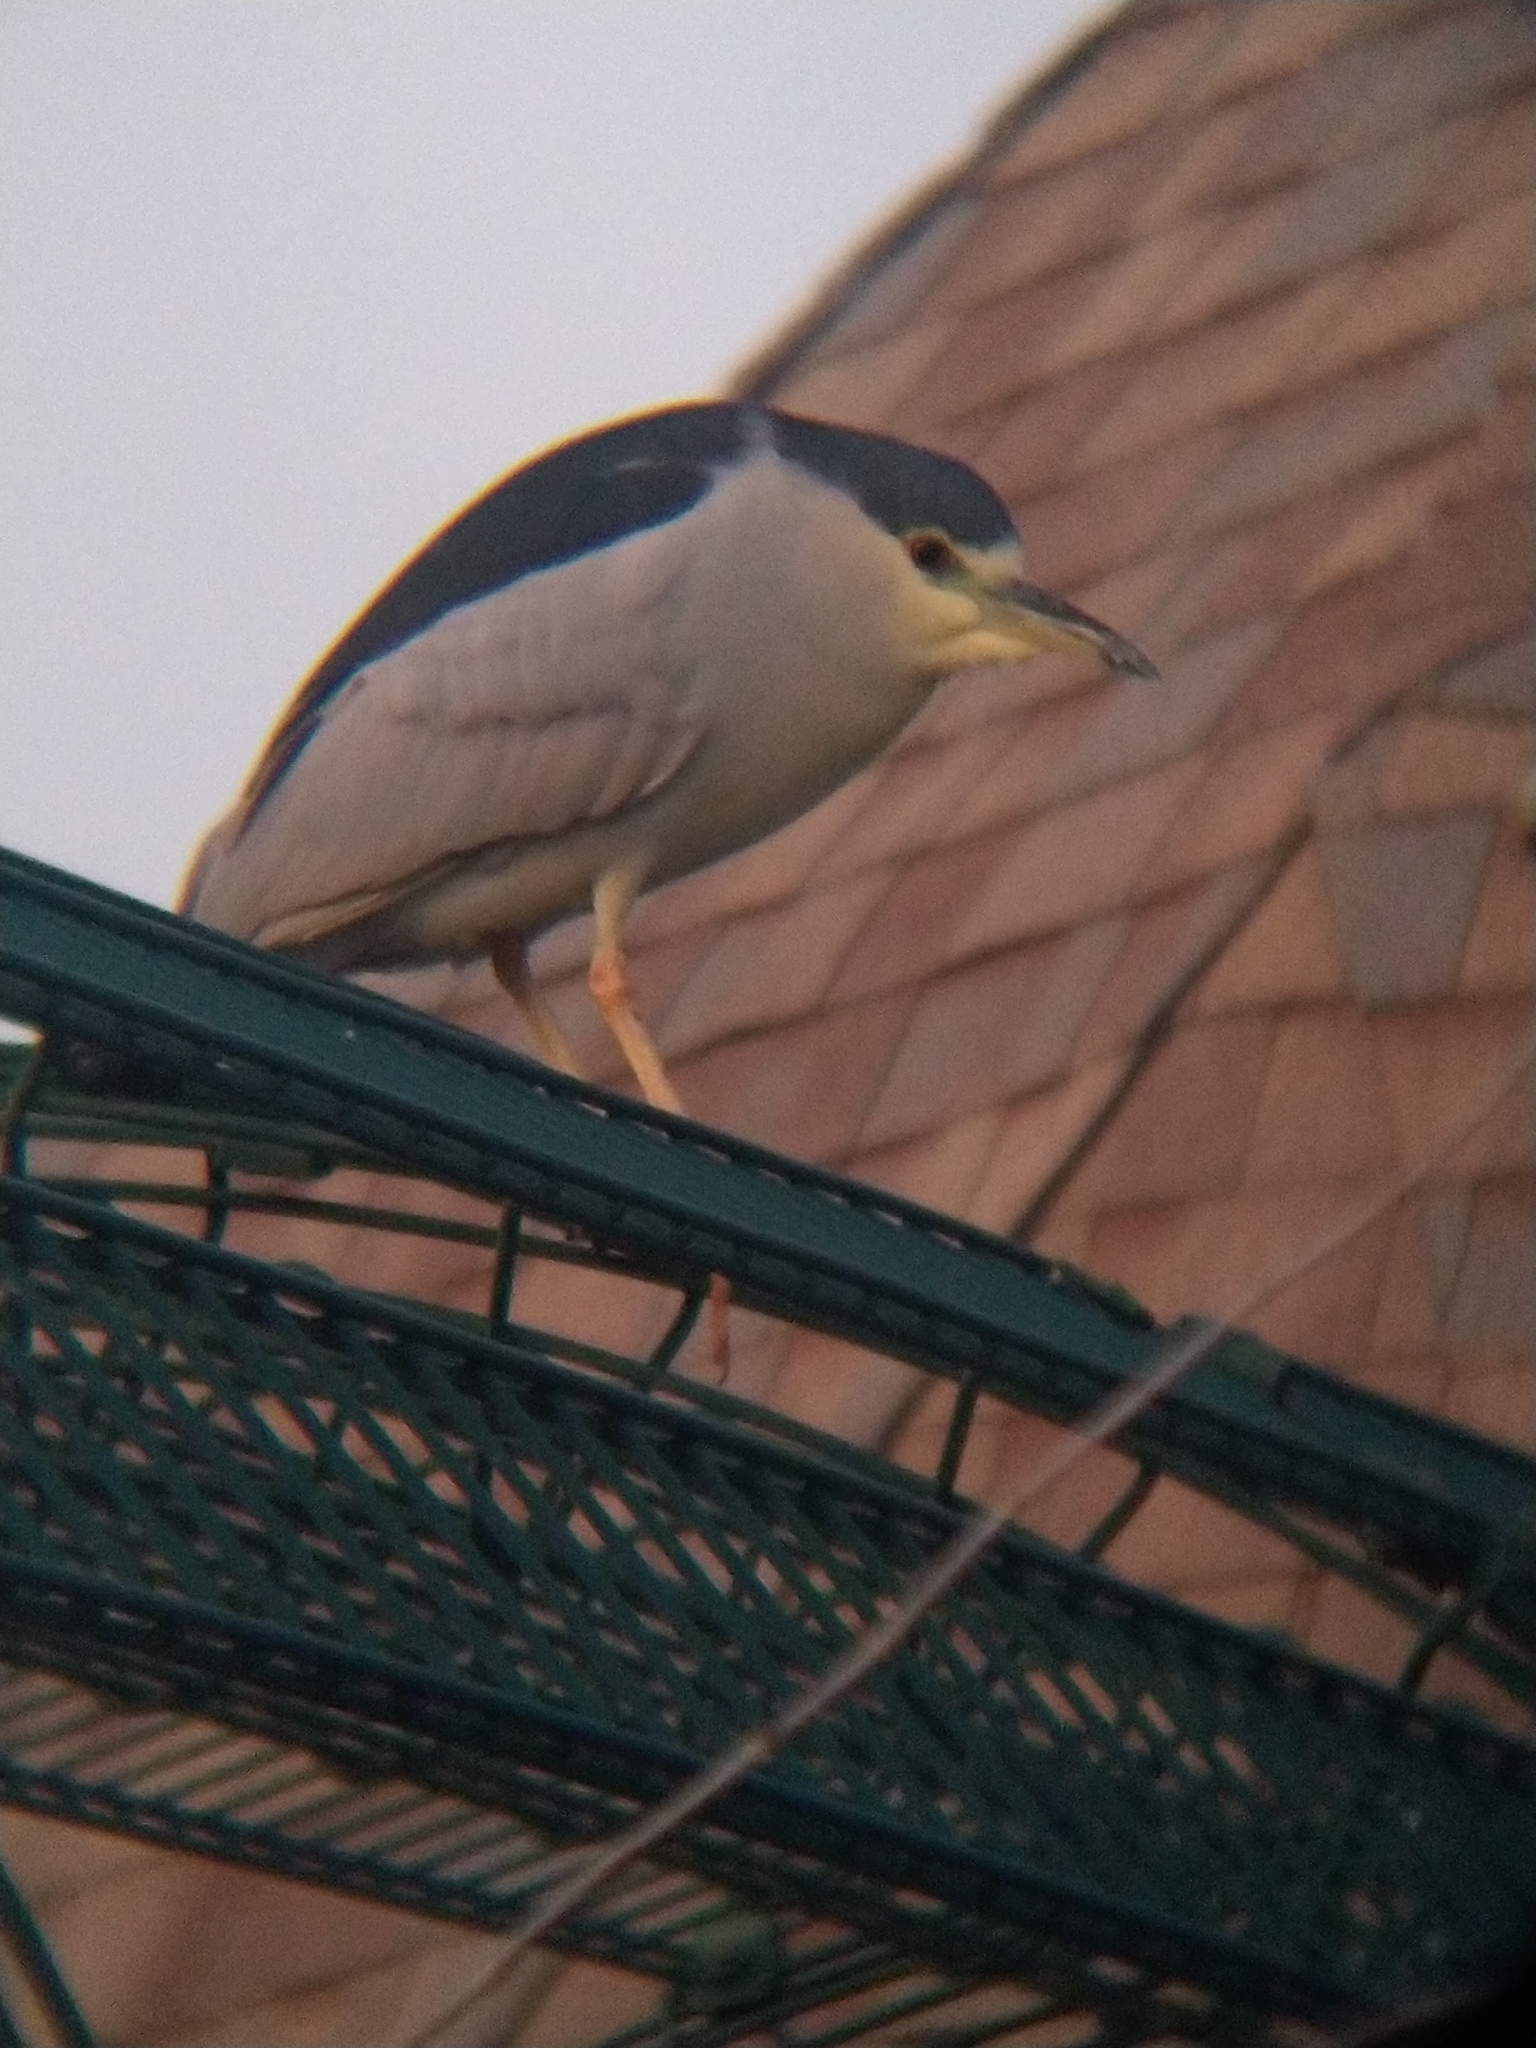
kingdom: Animalia
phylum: Chordata
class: Aves
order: Pelecaniformes
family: Ardeidae
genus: Nycticorax
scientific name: Nycticorax nycticorax
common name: Black-crowned night heron
